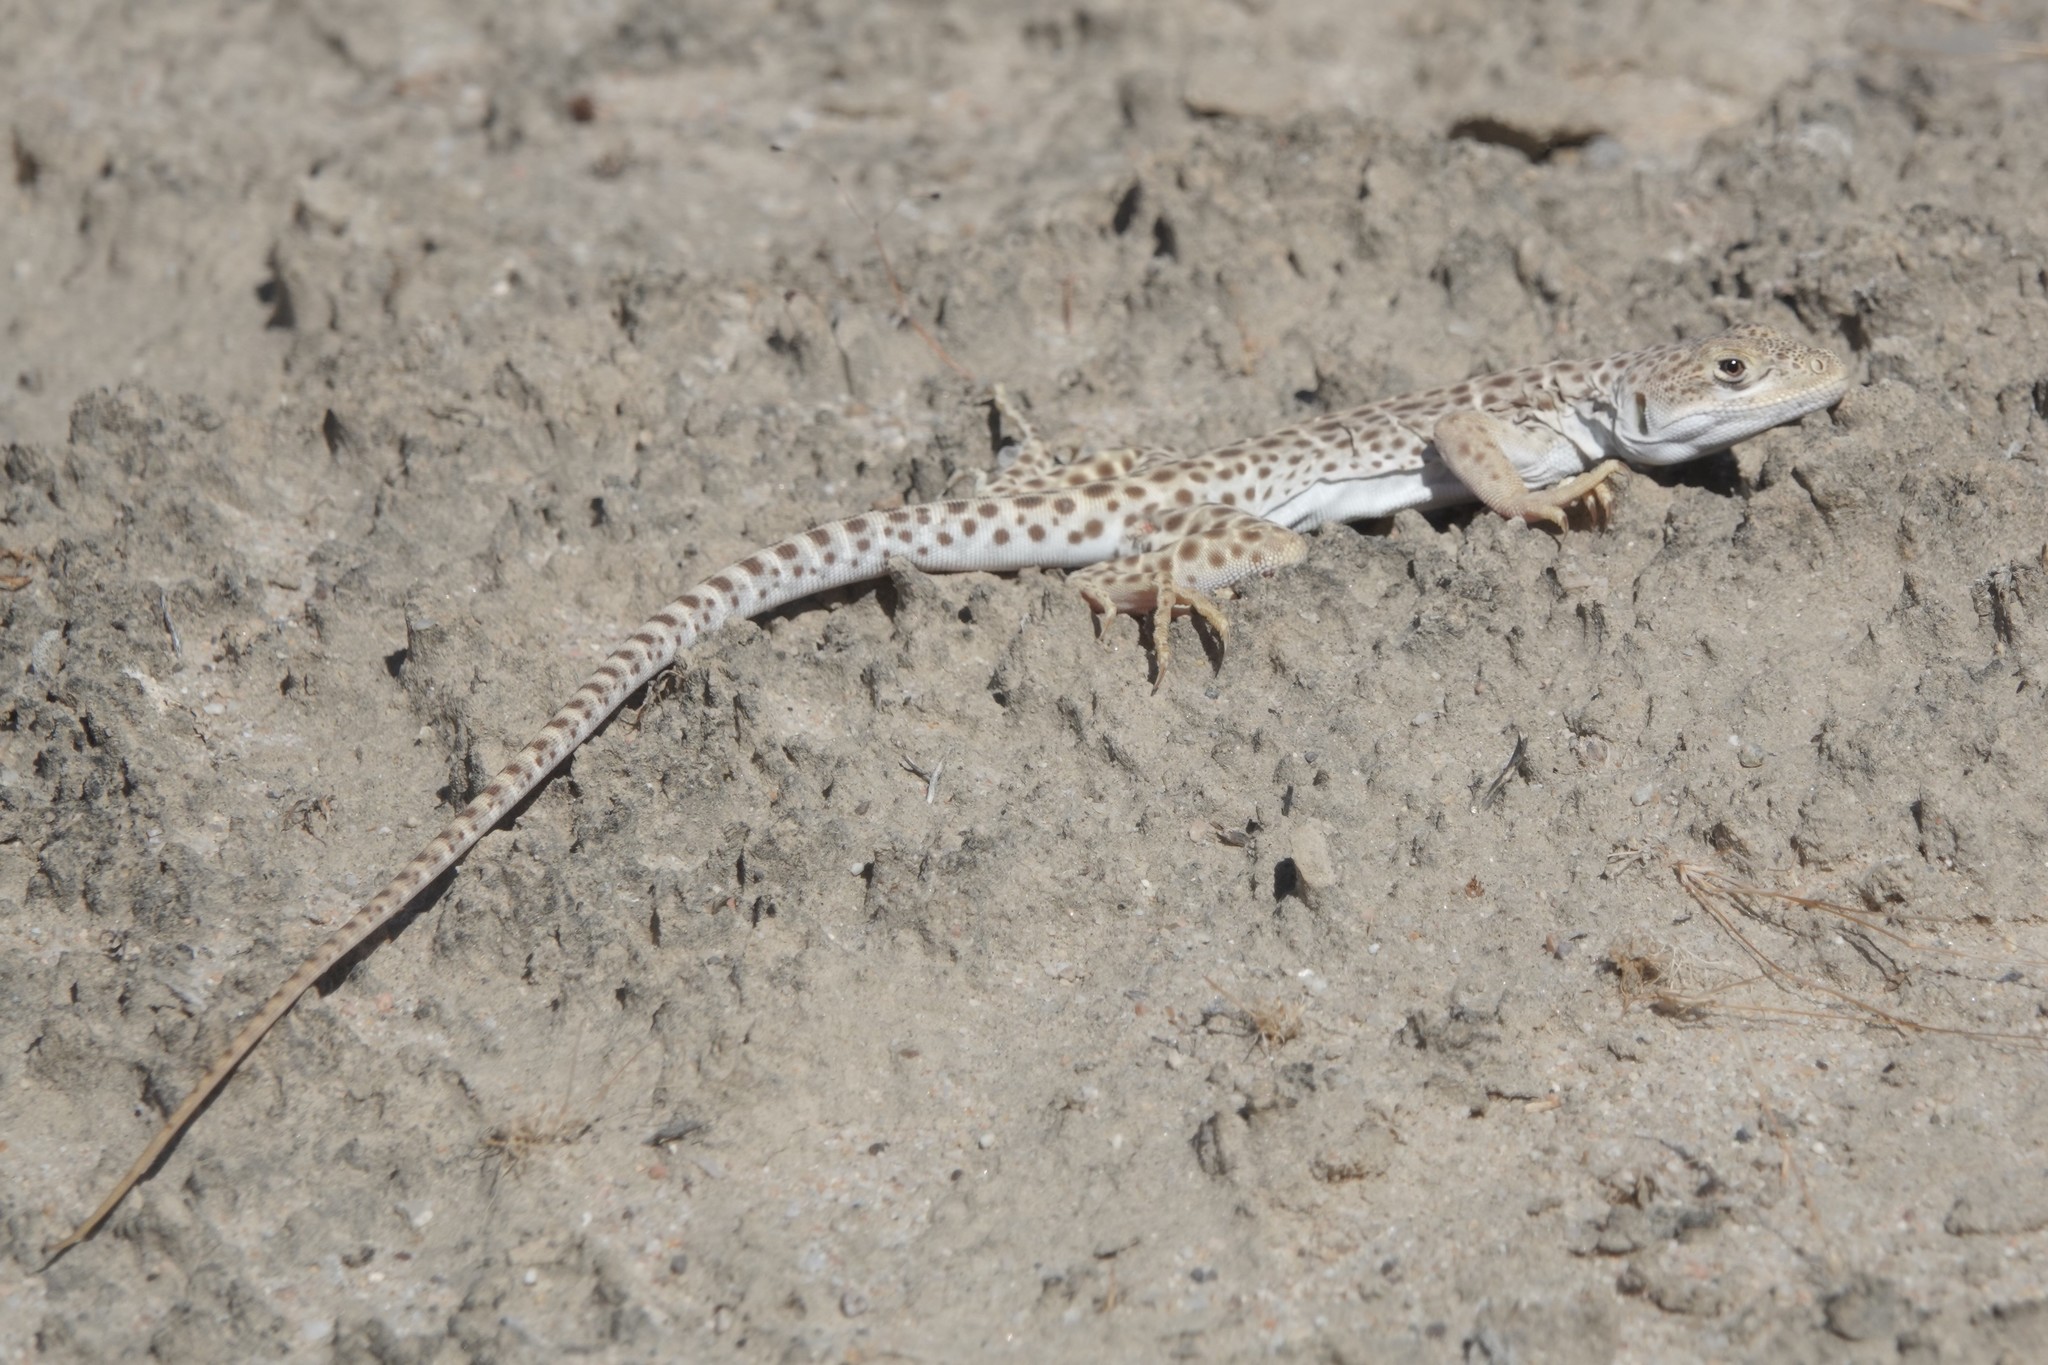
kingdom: Animalia
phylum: Chordata
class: Squamata
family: Crotaphytidae
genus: Gambelia
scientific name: Gambelia wislizenii
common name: Longnose leopard lizard
